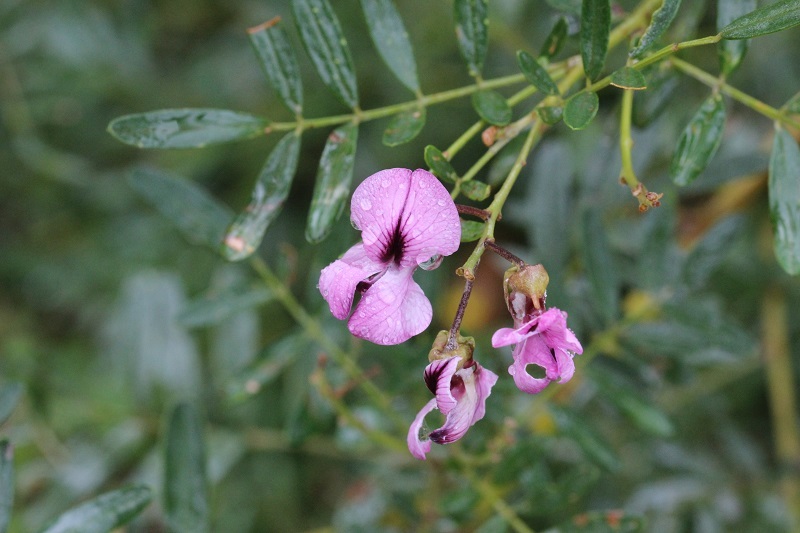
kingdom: Plantae
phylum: Tracheophyta
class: Magnoliopsida
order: Fabales
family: Fabaceae
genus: Virgilia
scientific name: Virgilia divaricata
